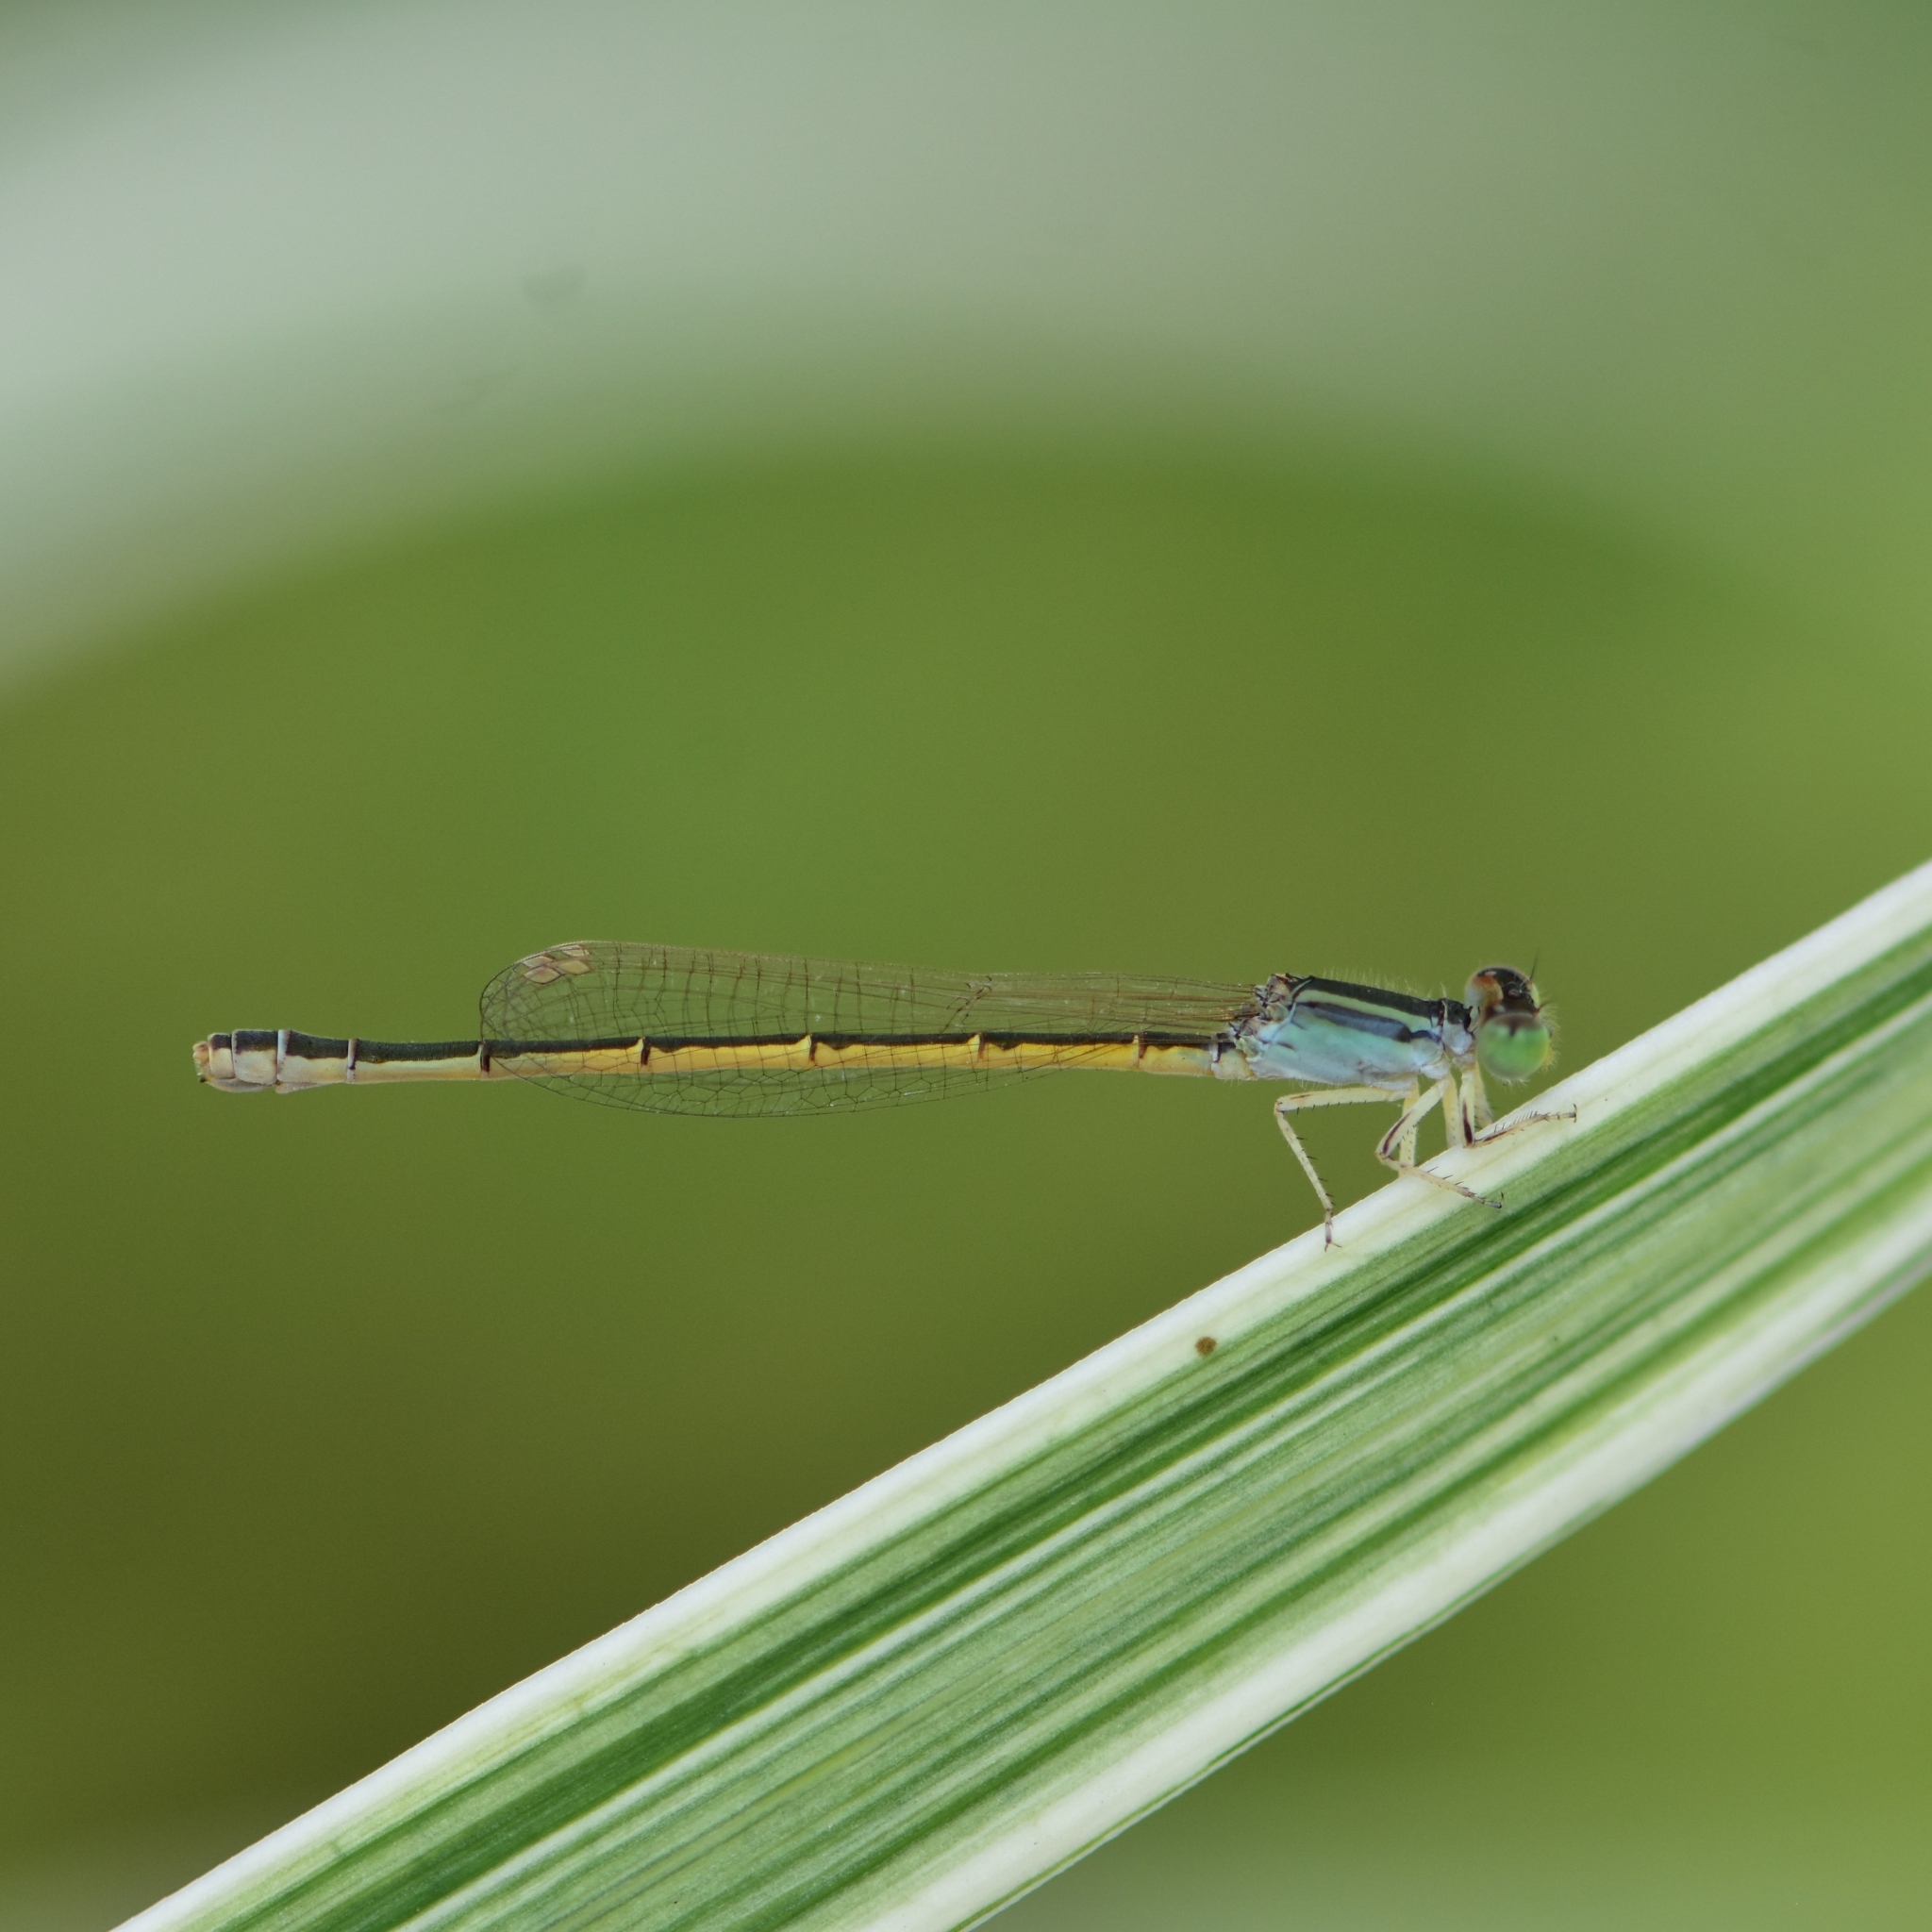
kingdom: Animalia
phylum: Arthropoda
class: Insecta
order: Odonata
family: Coenagrionidae
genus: Ischnura
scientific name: Ischnura rubilio
